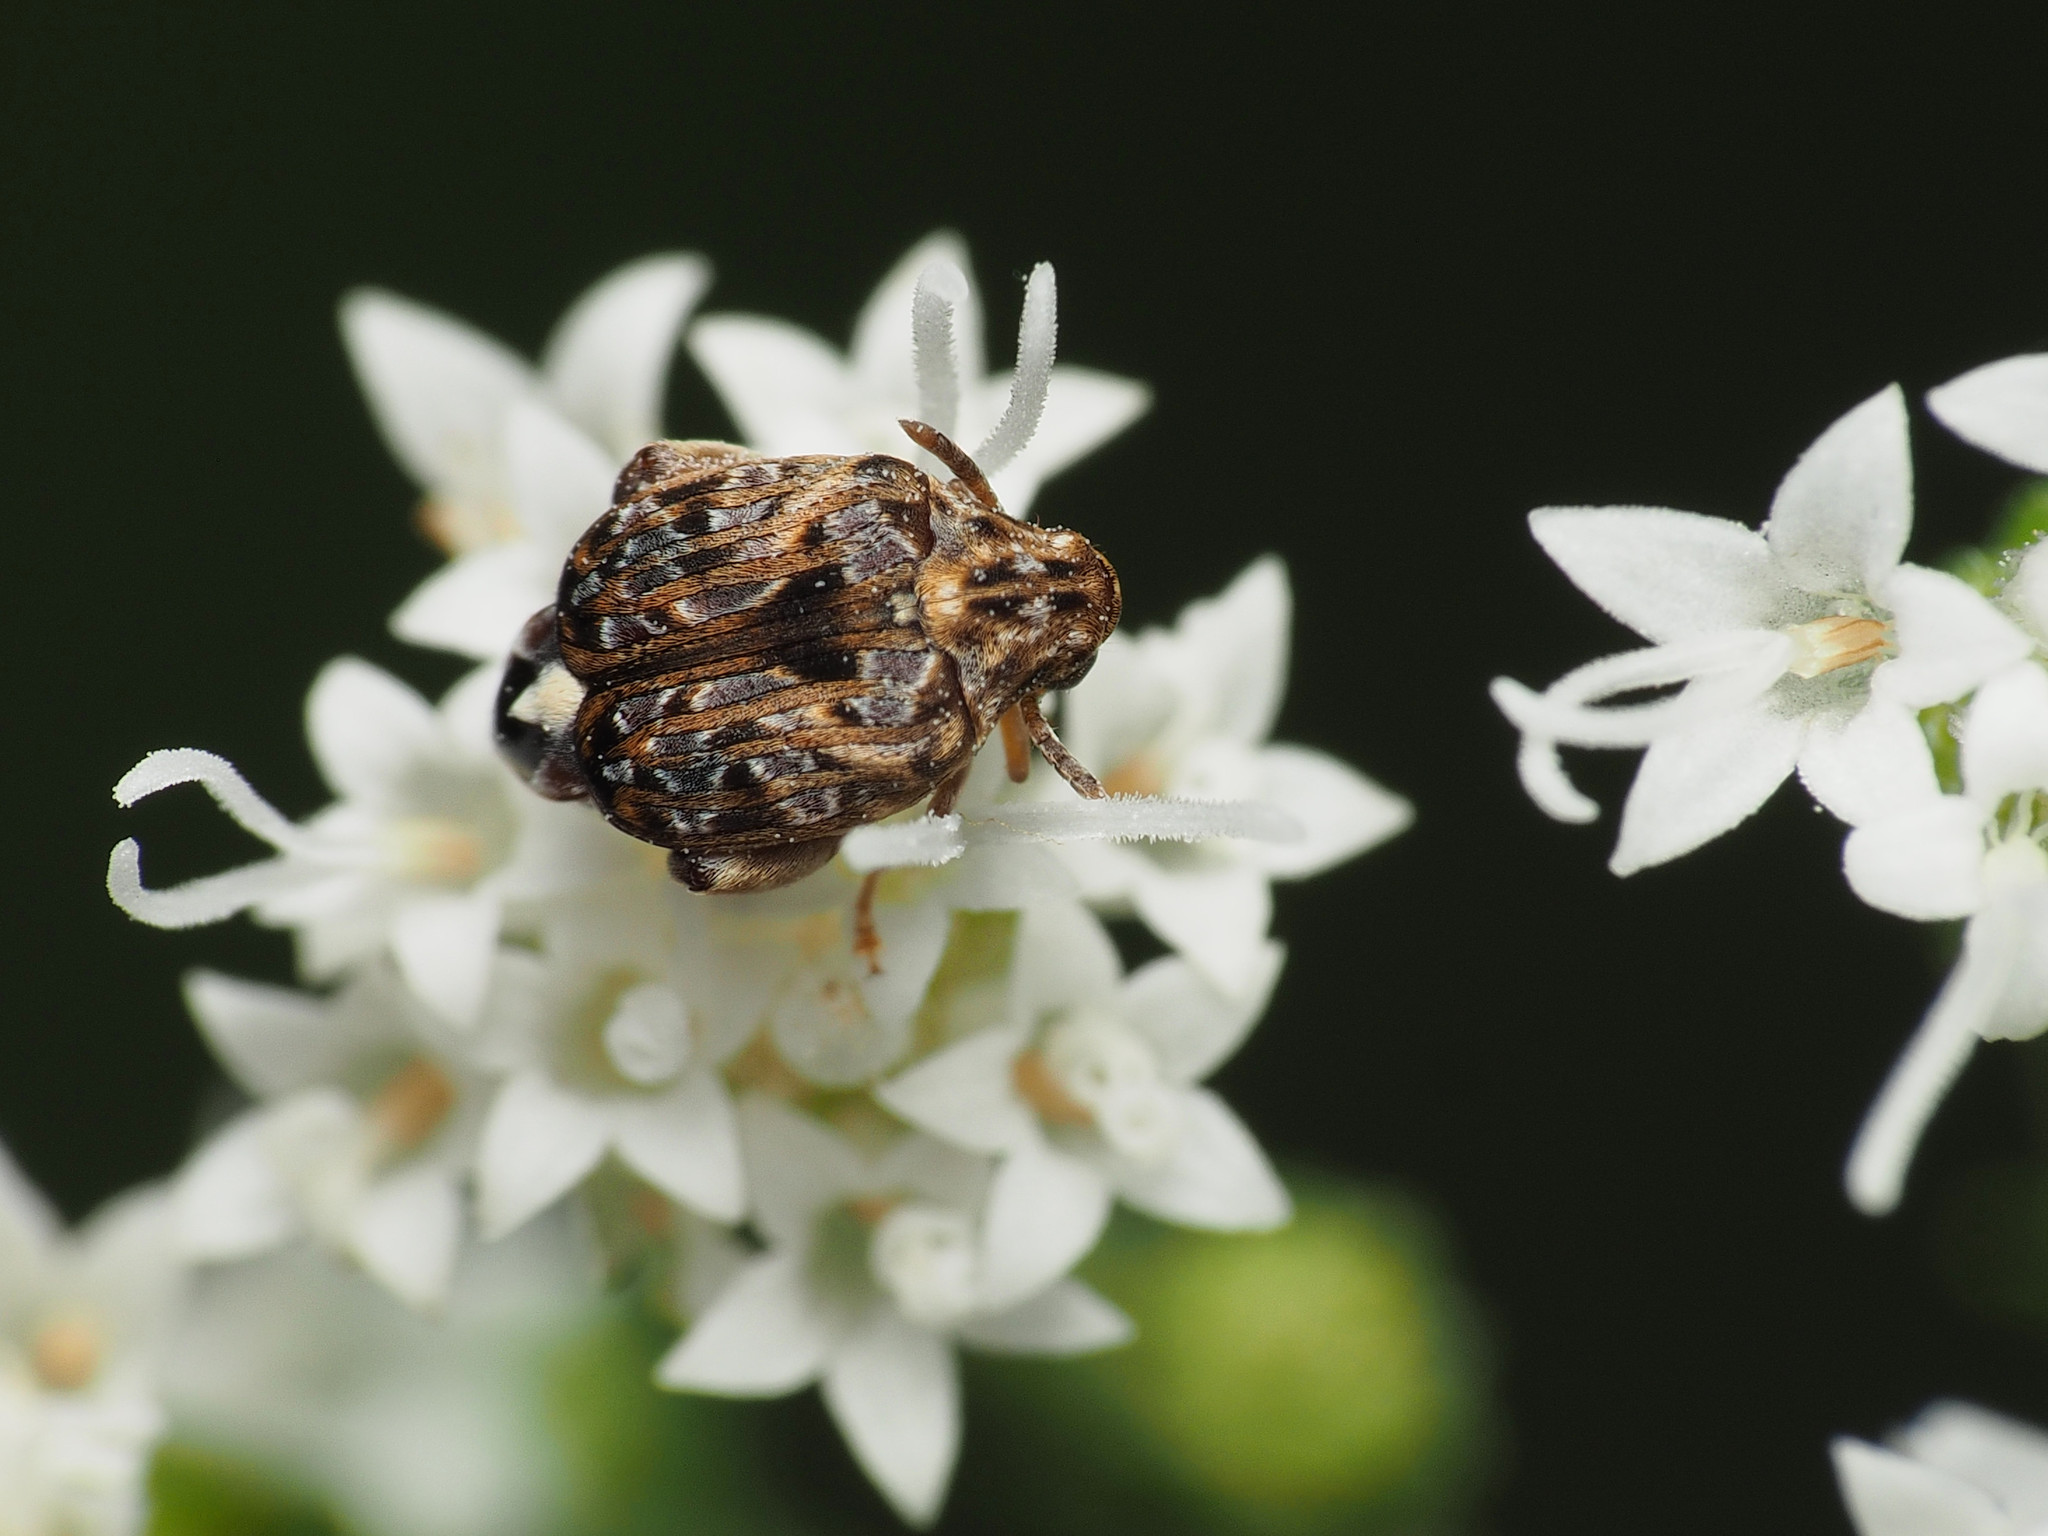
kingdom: Animalia
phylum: Arthropoda
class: Insecta
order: Coleoptera
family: Chrysomelidae
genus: Gibbobruchus
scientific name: Gibbobruchus mimus
